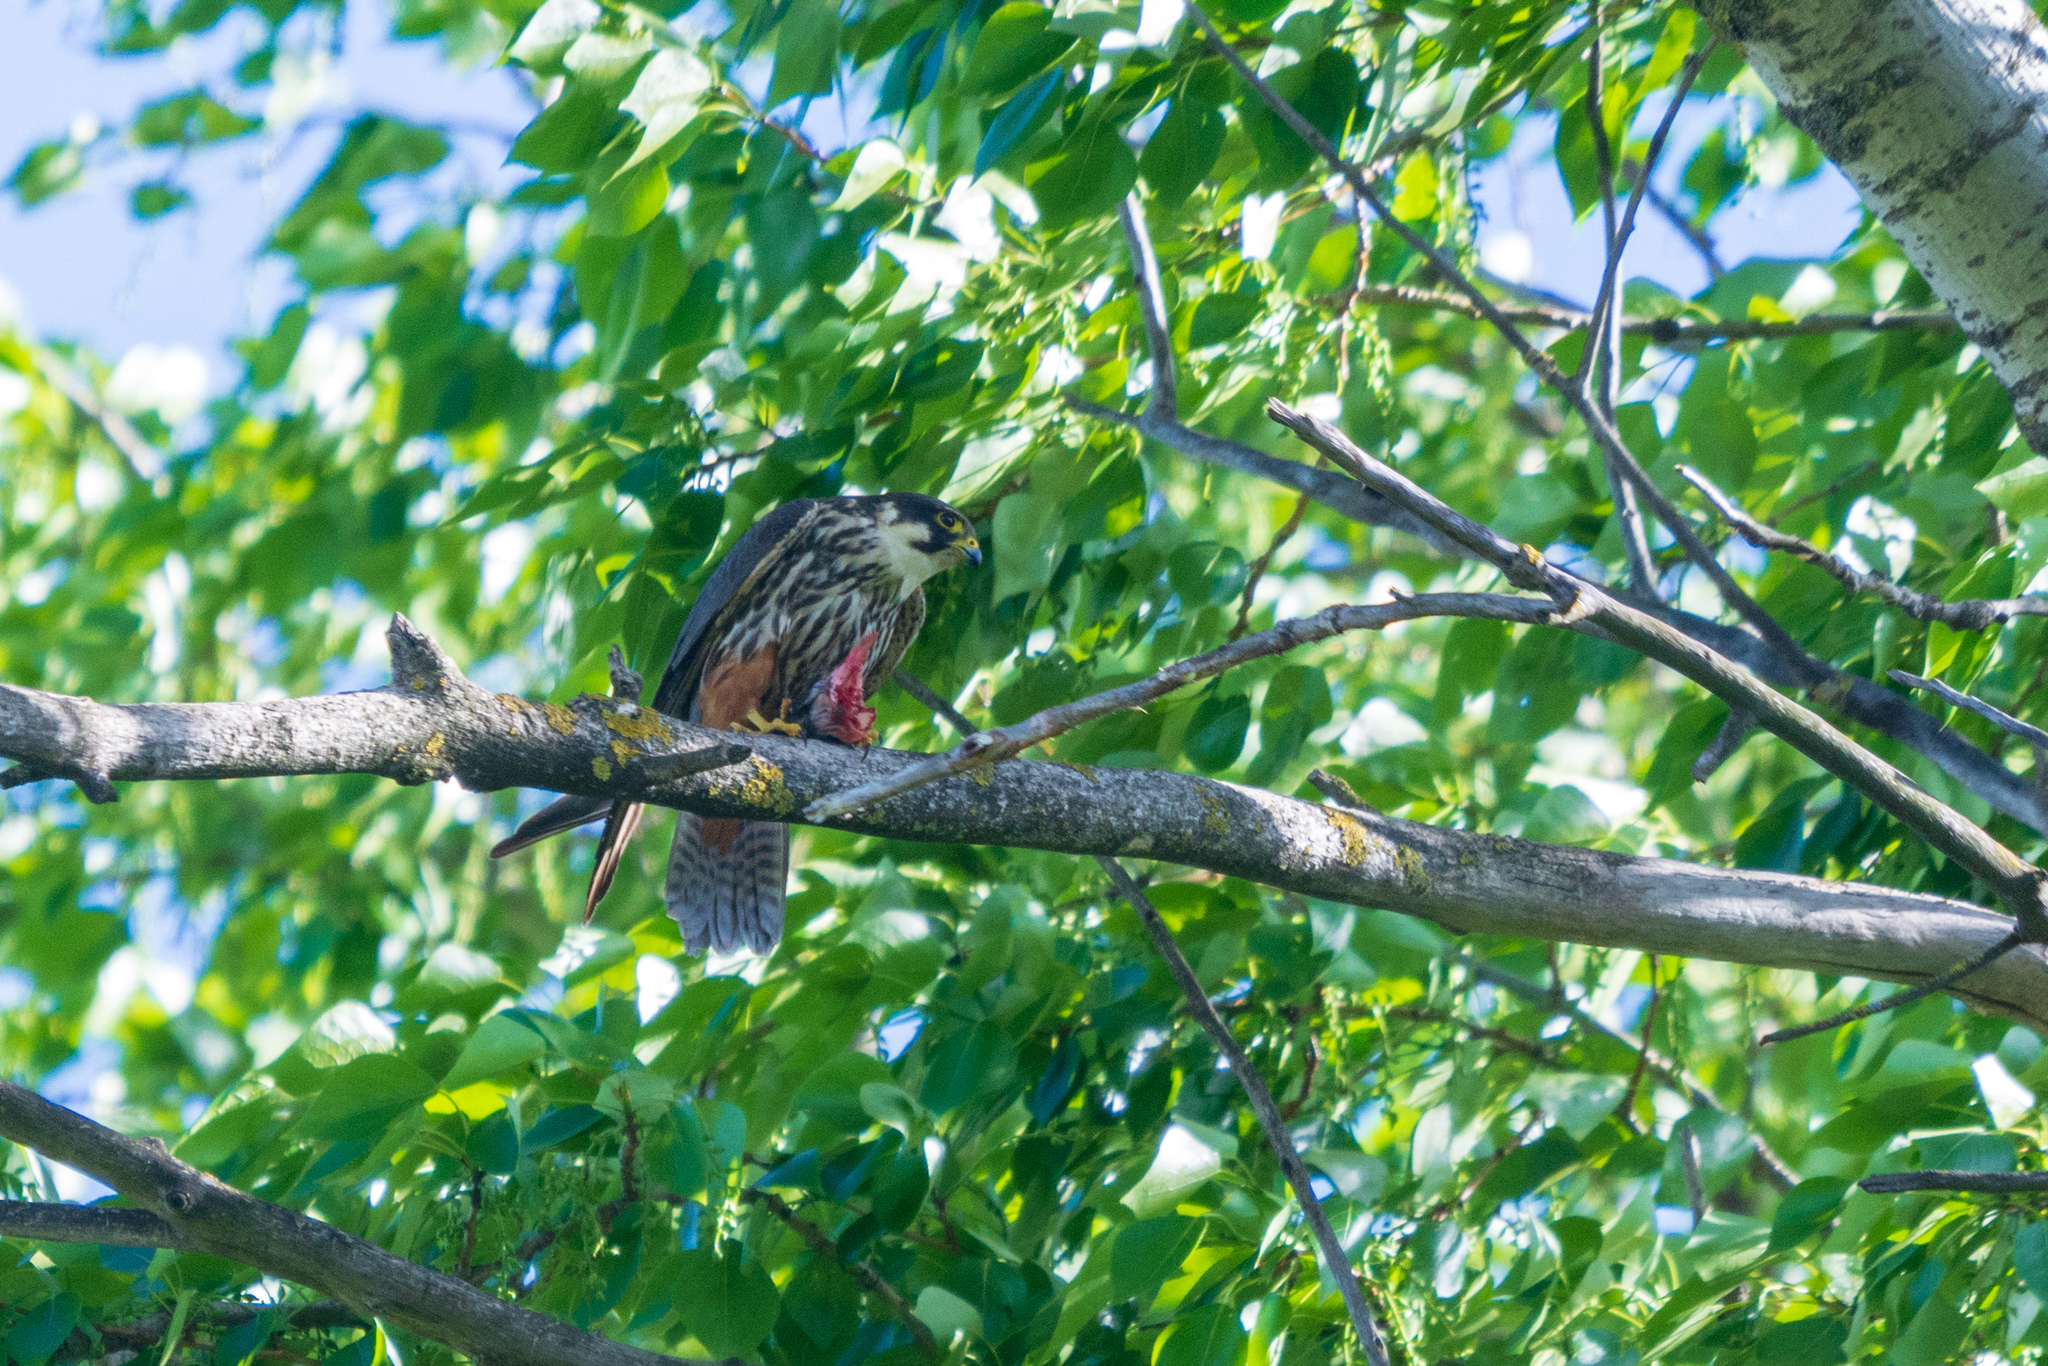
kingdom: Animalia
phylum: Chordata
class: Aves
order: Falconiformes
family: Falconidae
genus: Falco
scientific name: Falco subbuteo
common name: Eurasian hobby
